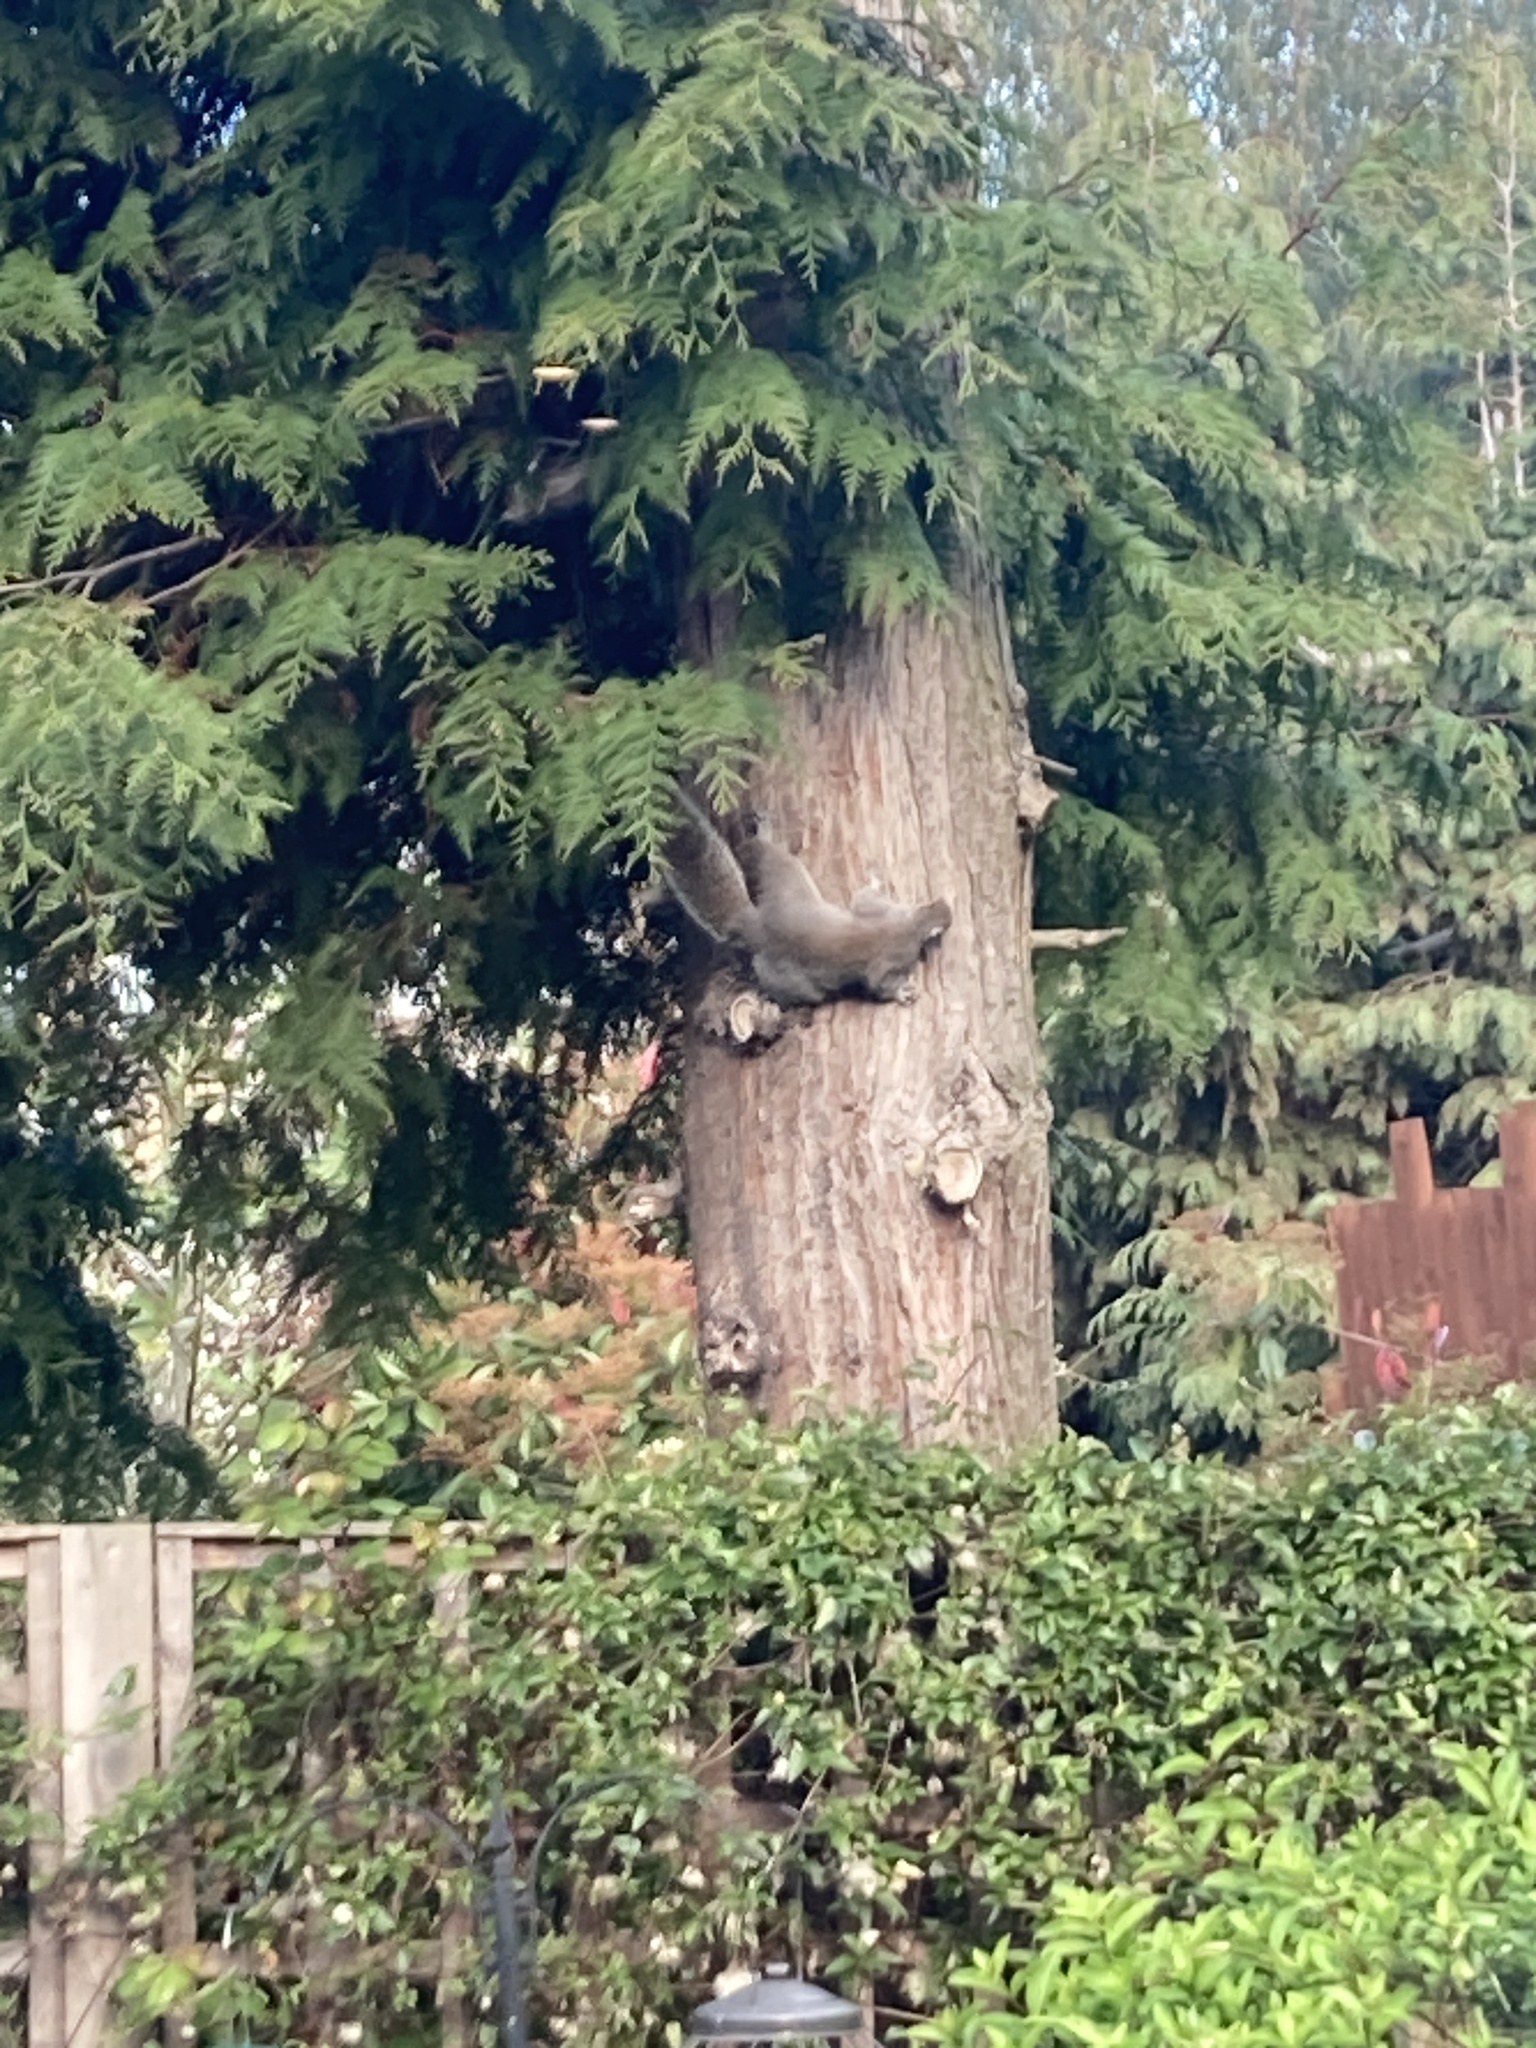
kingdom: Animalia
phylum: Chordata
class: Mammalia
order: Rodentia
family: Sciuridae
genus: Sciurus
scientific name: Sciurus carolinensis
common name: Eastern gray squirrel
